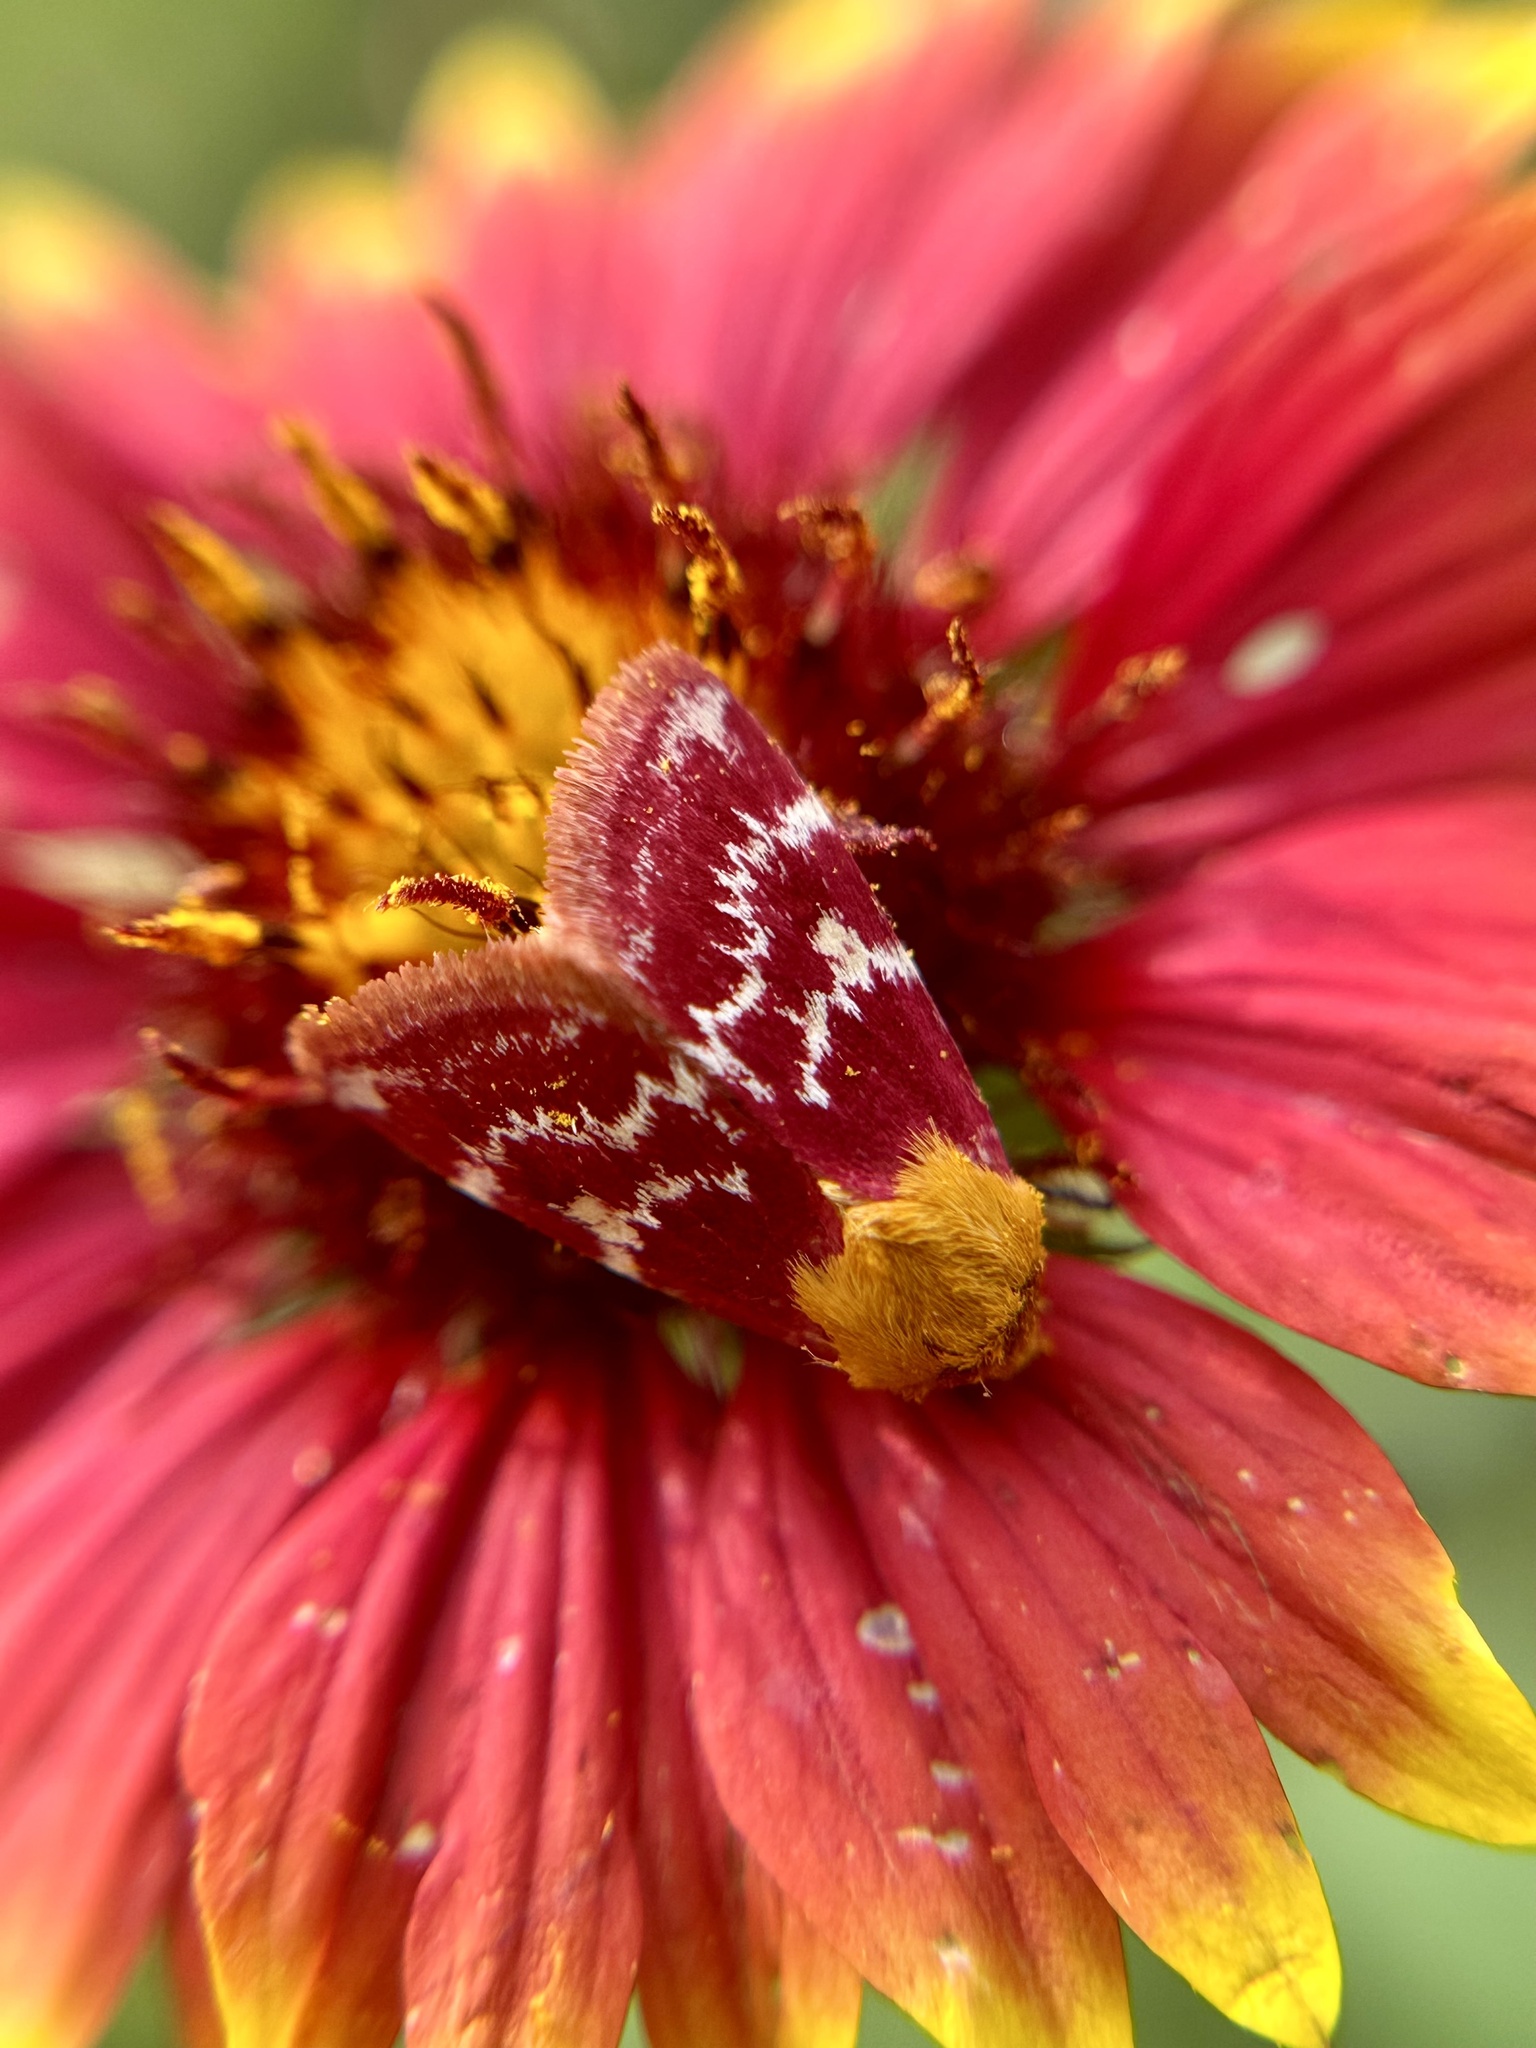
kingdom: Animalia
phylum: Arthropoda
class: Insecta
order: Lepidoptera
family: Noctuidae
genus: Schinia
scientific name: Schinia volupia
